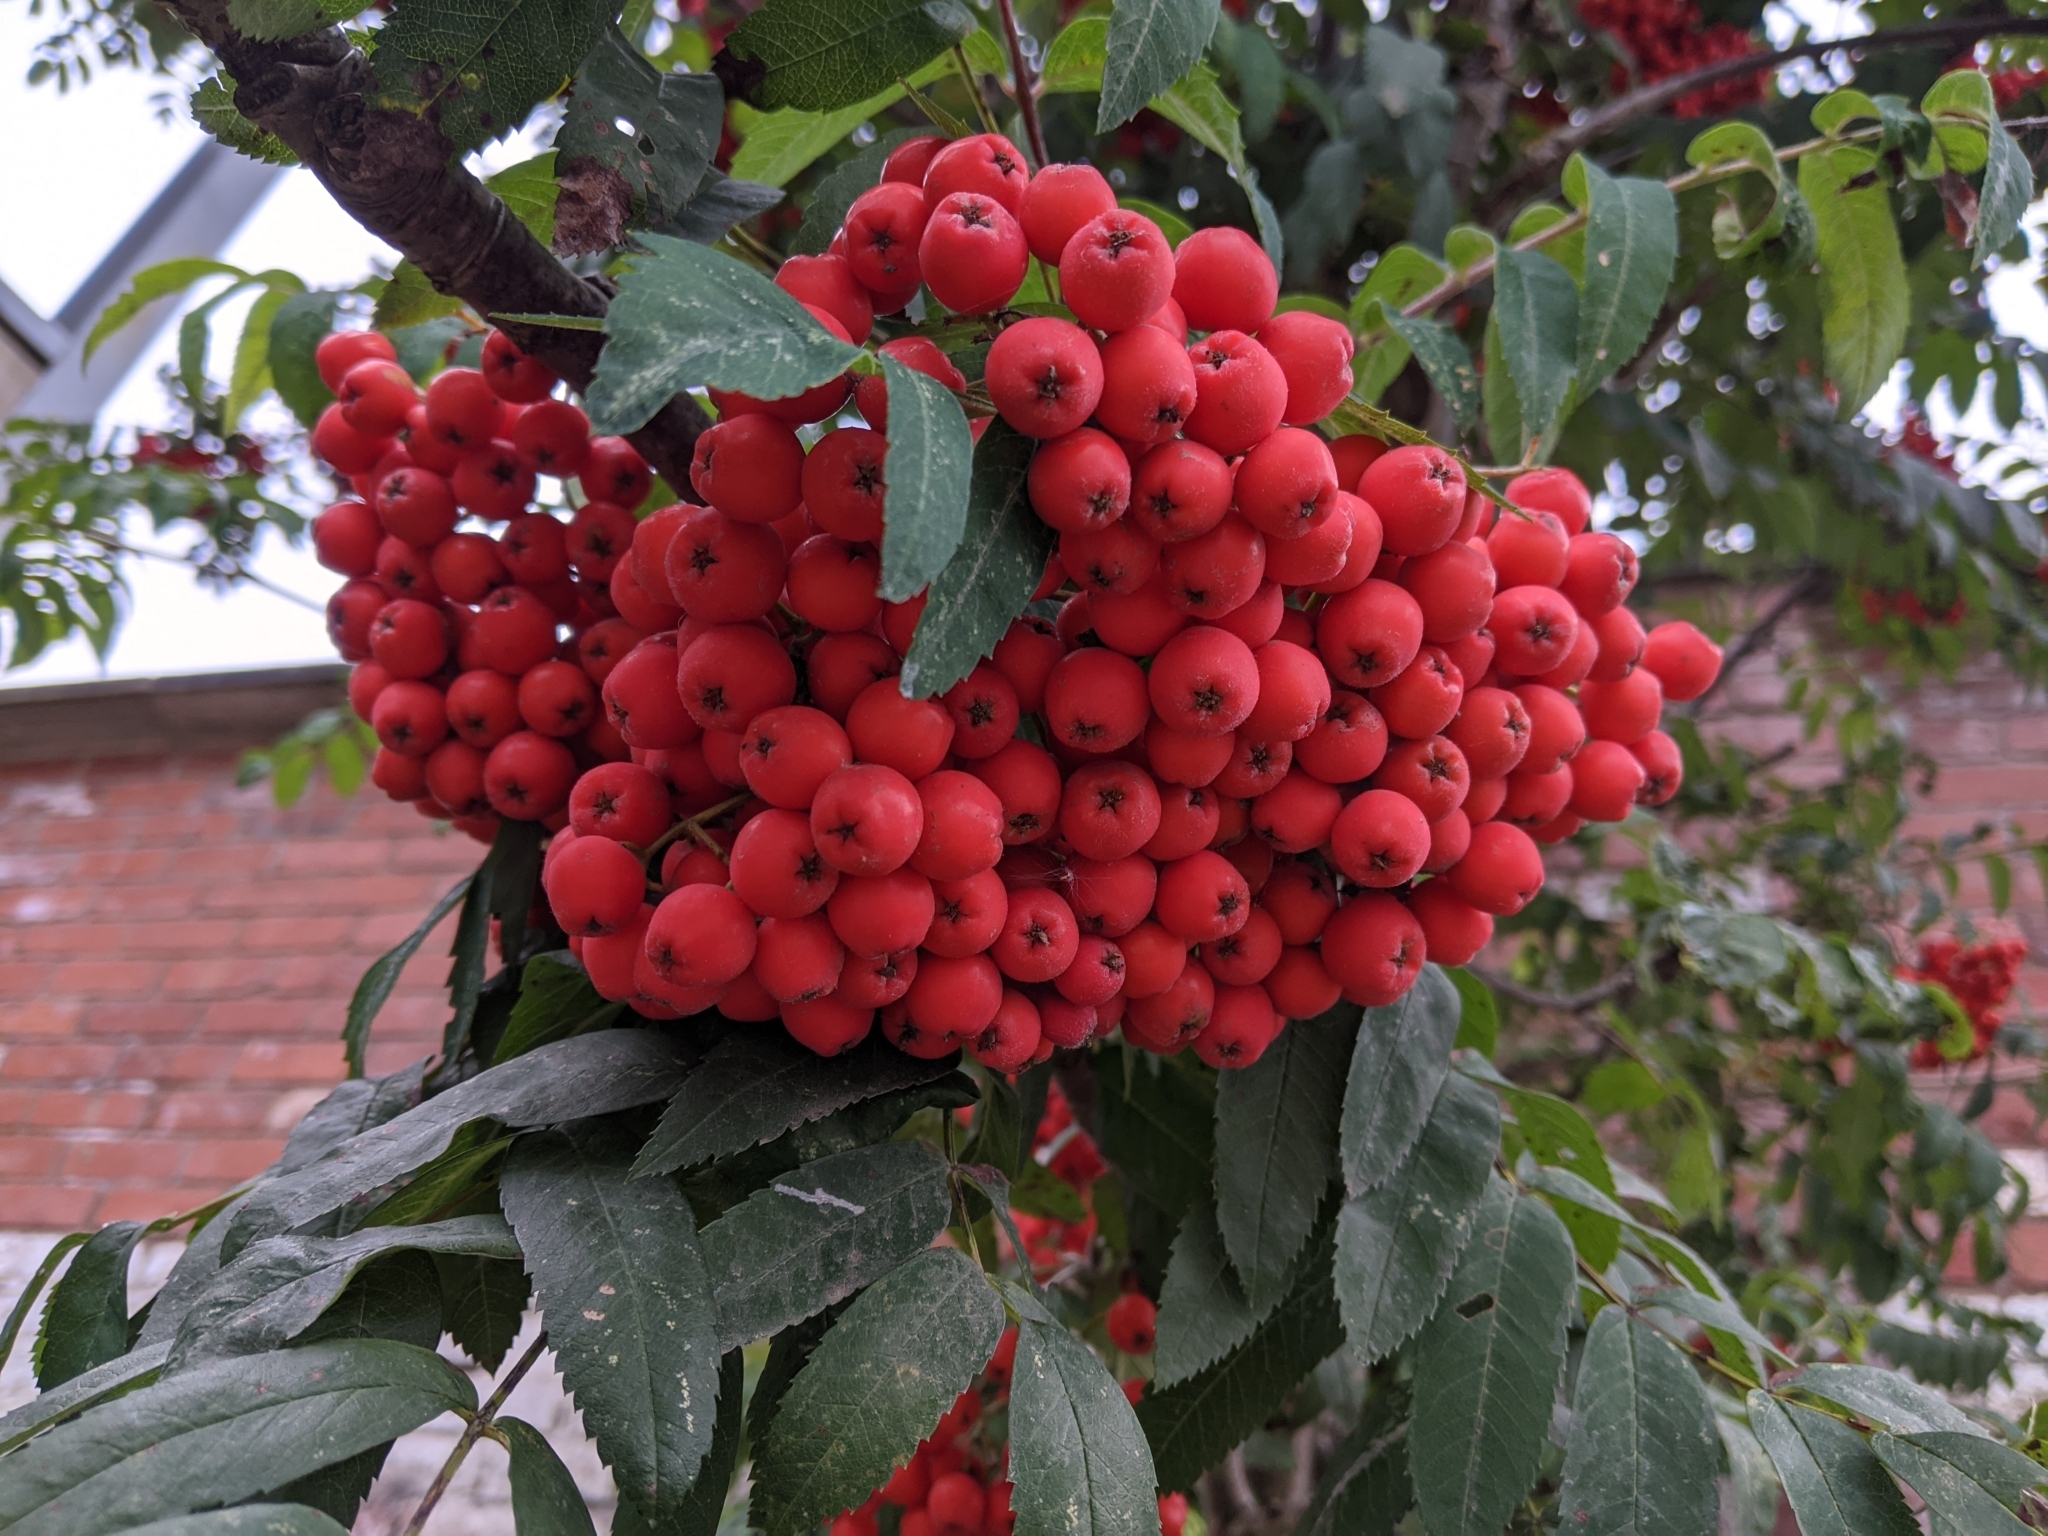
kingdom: Plantae
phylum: Tracheophyta
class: Magnoliopsida
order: Rosales
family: Rosaceae
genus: Sorbus
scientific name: Sorbus aucuparia
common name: Rowan
